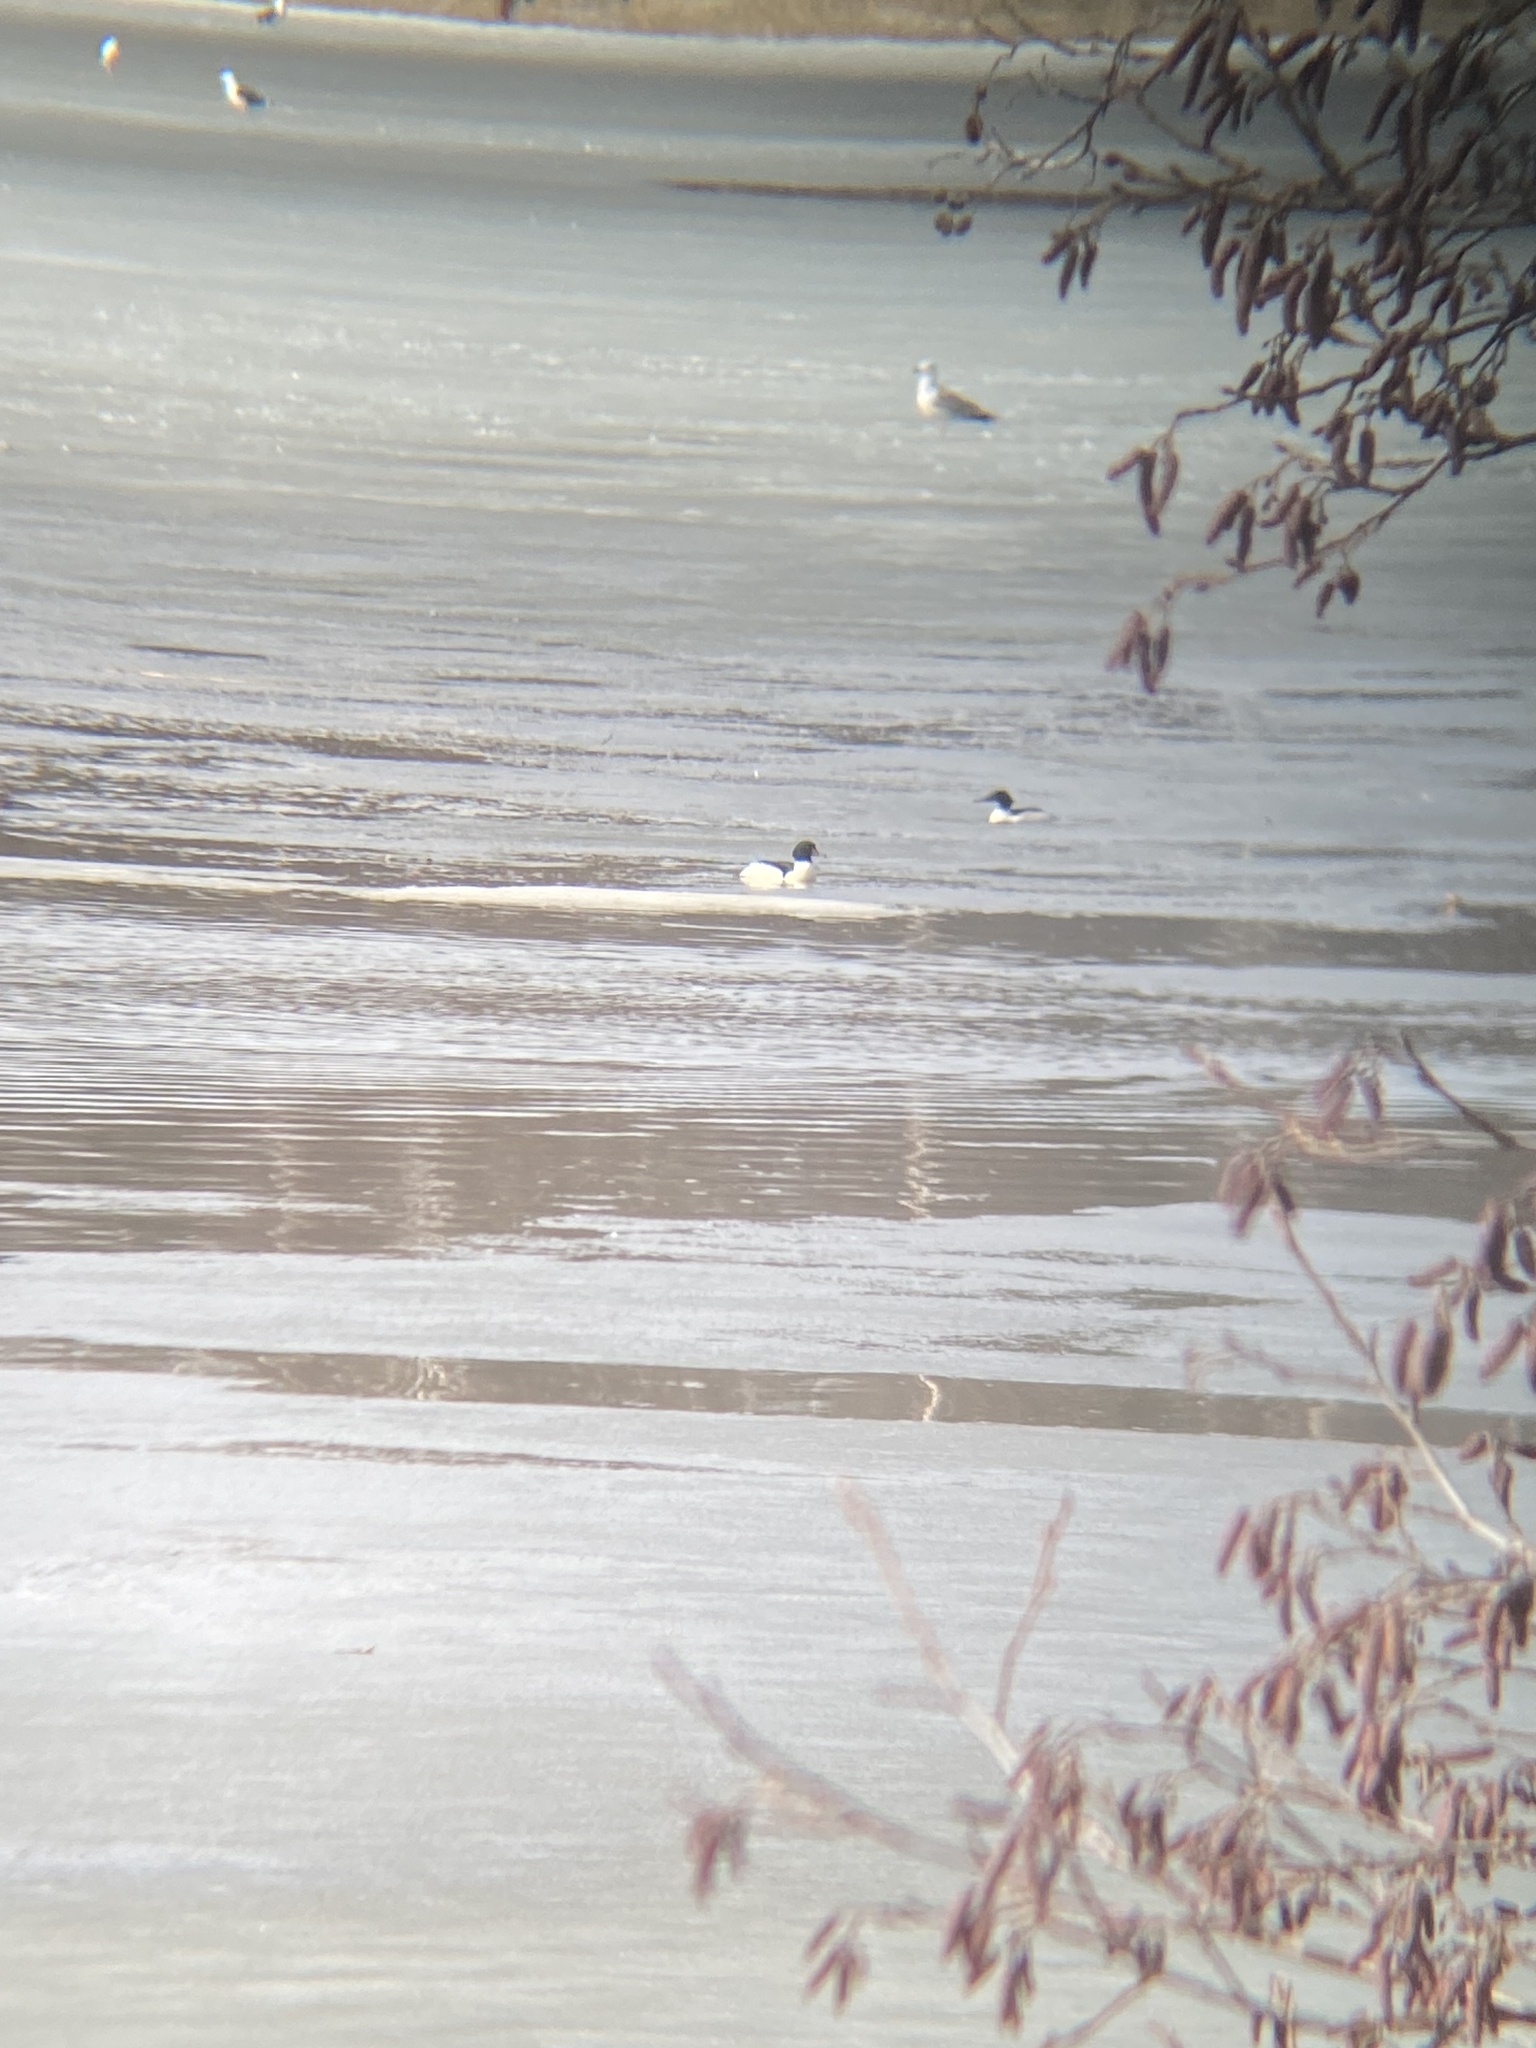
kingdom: Animalia
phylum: Chordata
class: Aves
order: Anseriformes
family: Anatidae
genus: Mergus
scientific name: Mergus merganser
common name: Common merganser
